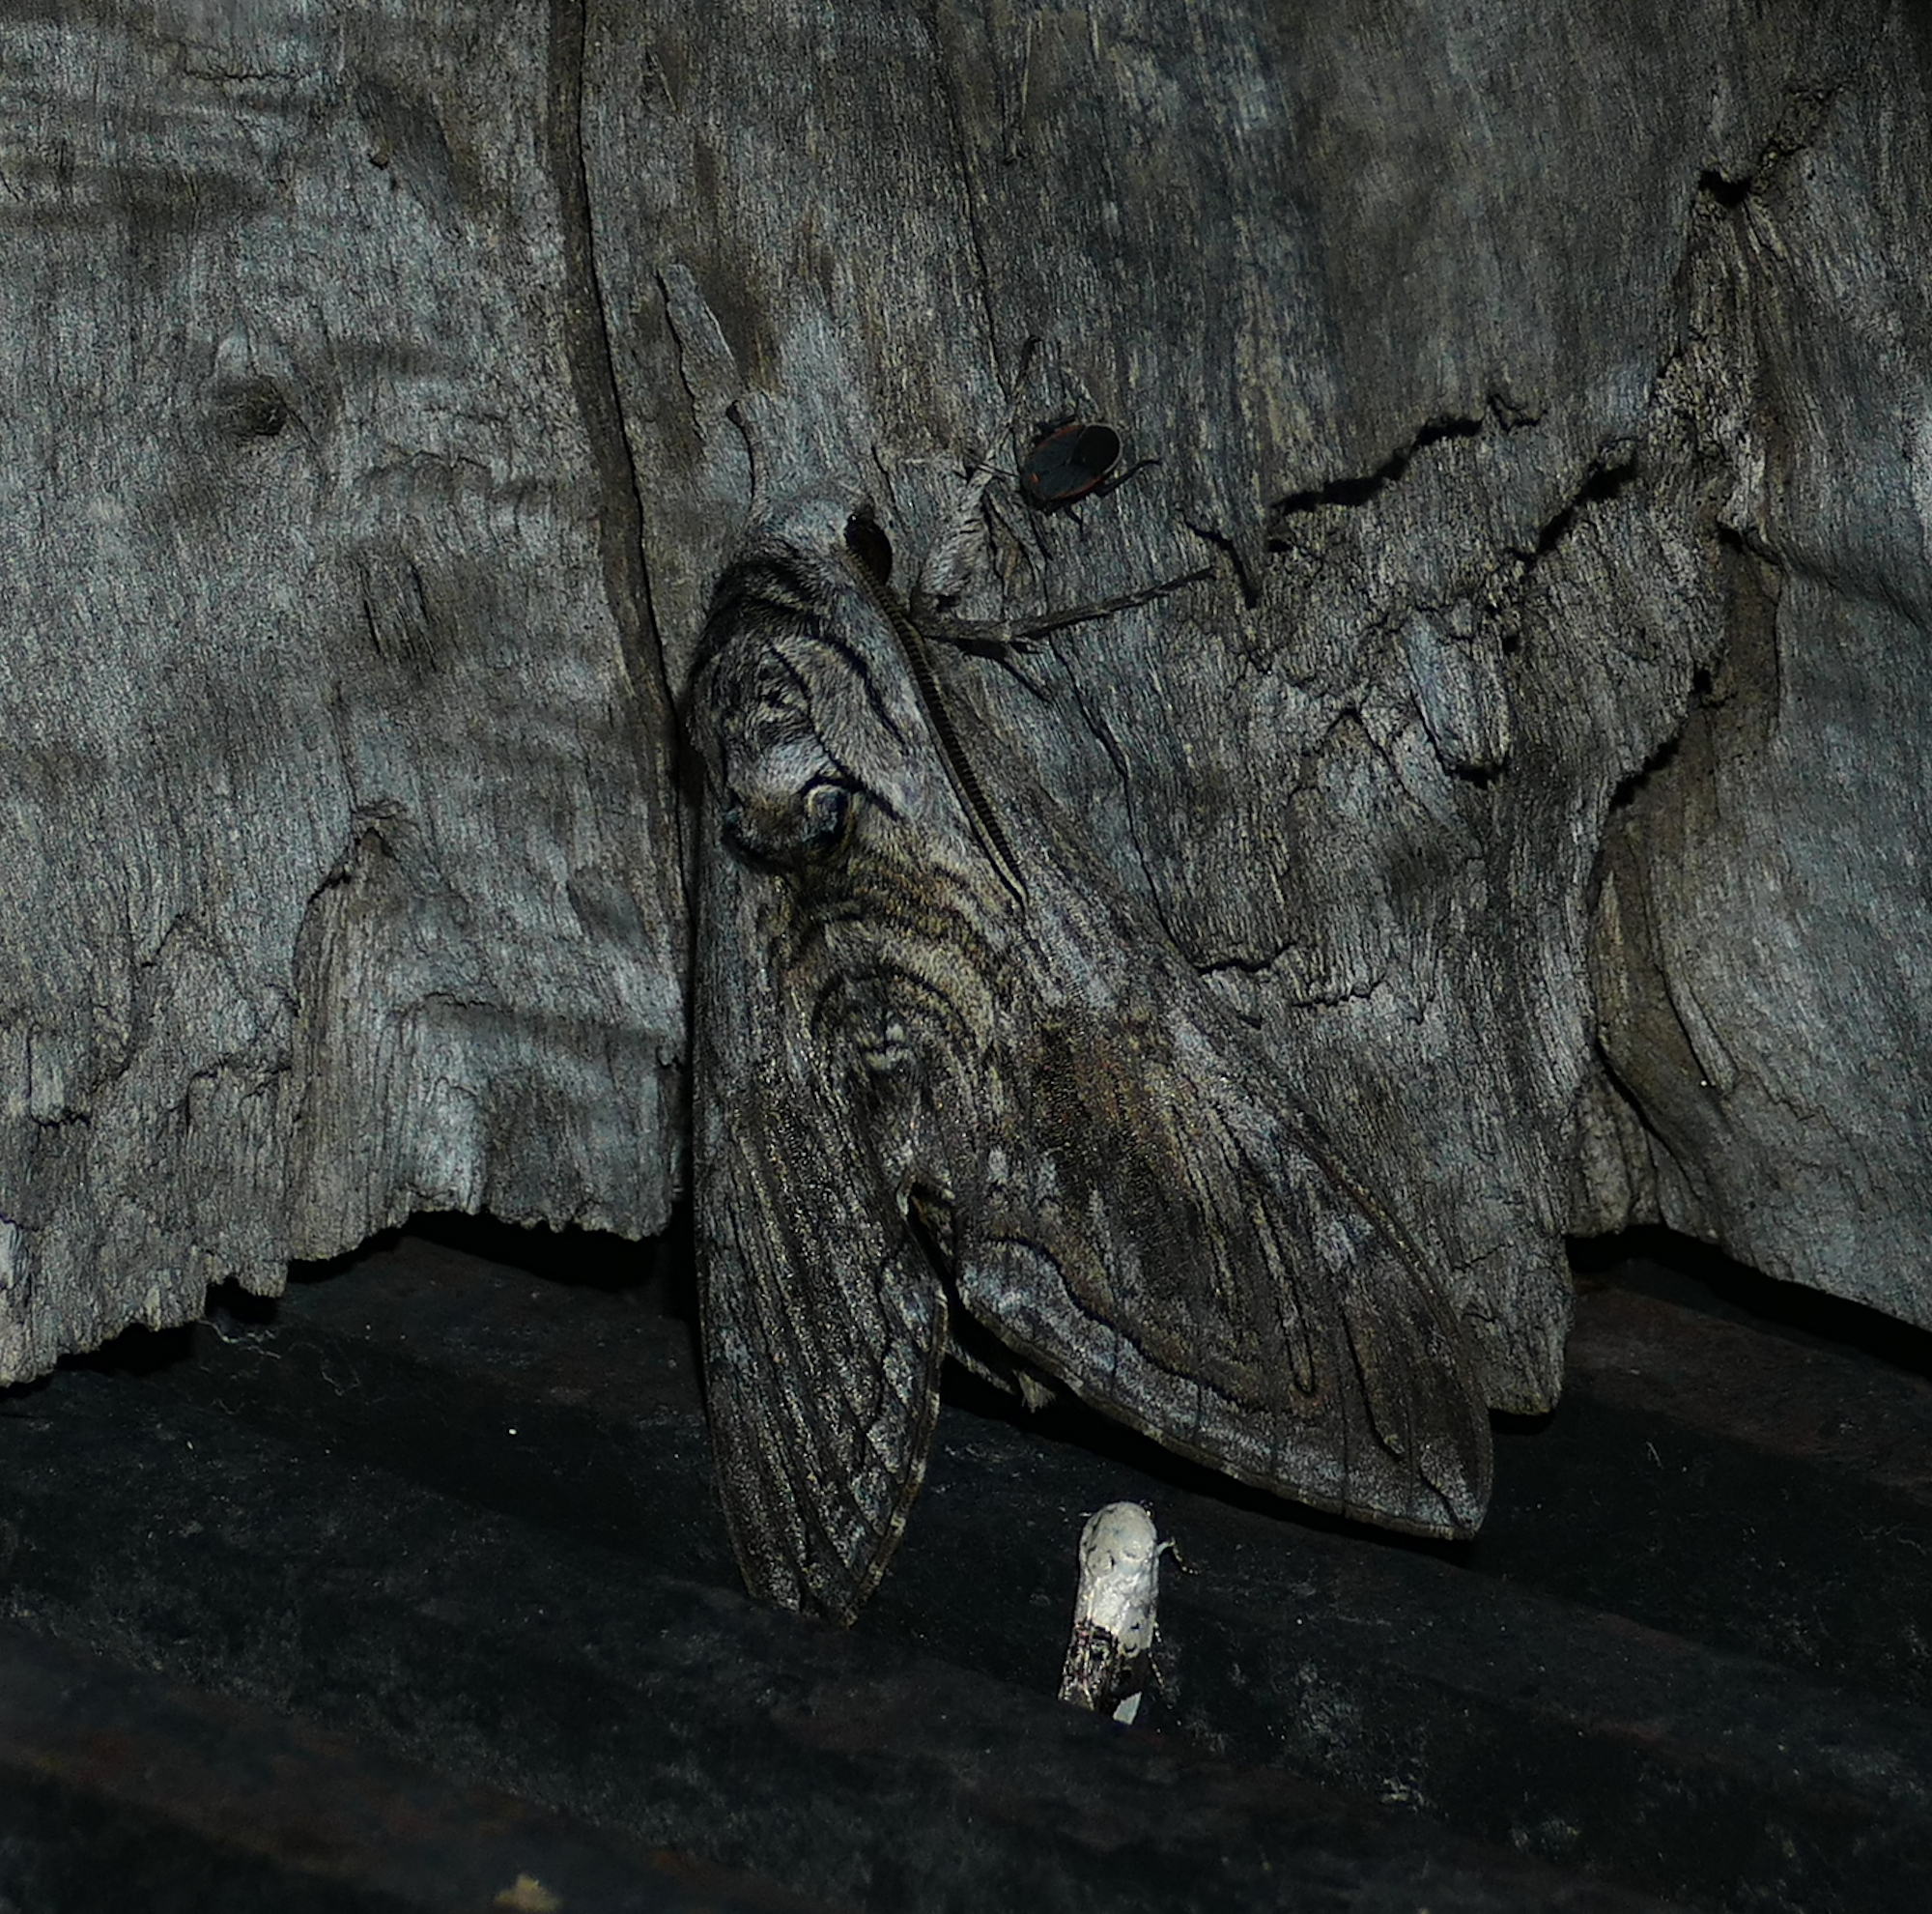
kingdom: Animalia
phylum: Arthropoda
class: Insecta
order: Lepidoptera
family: Sphingidae
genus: Manduca
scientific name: Manduca quinquemaculatus
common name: Five-spotted hawk-moth
